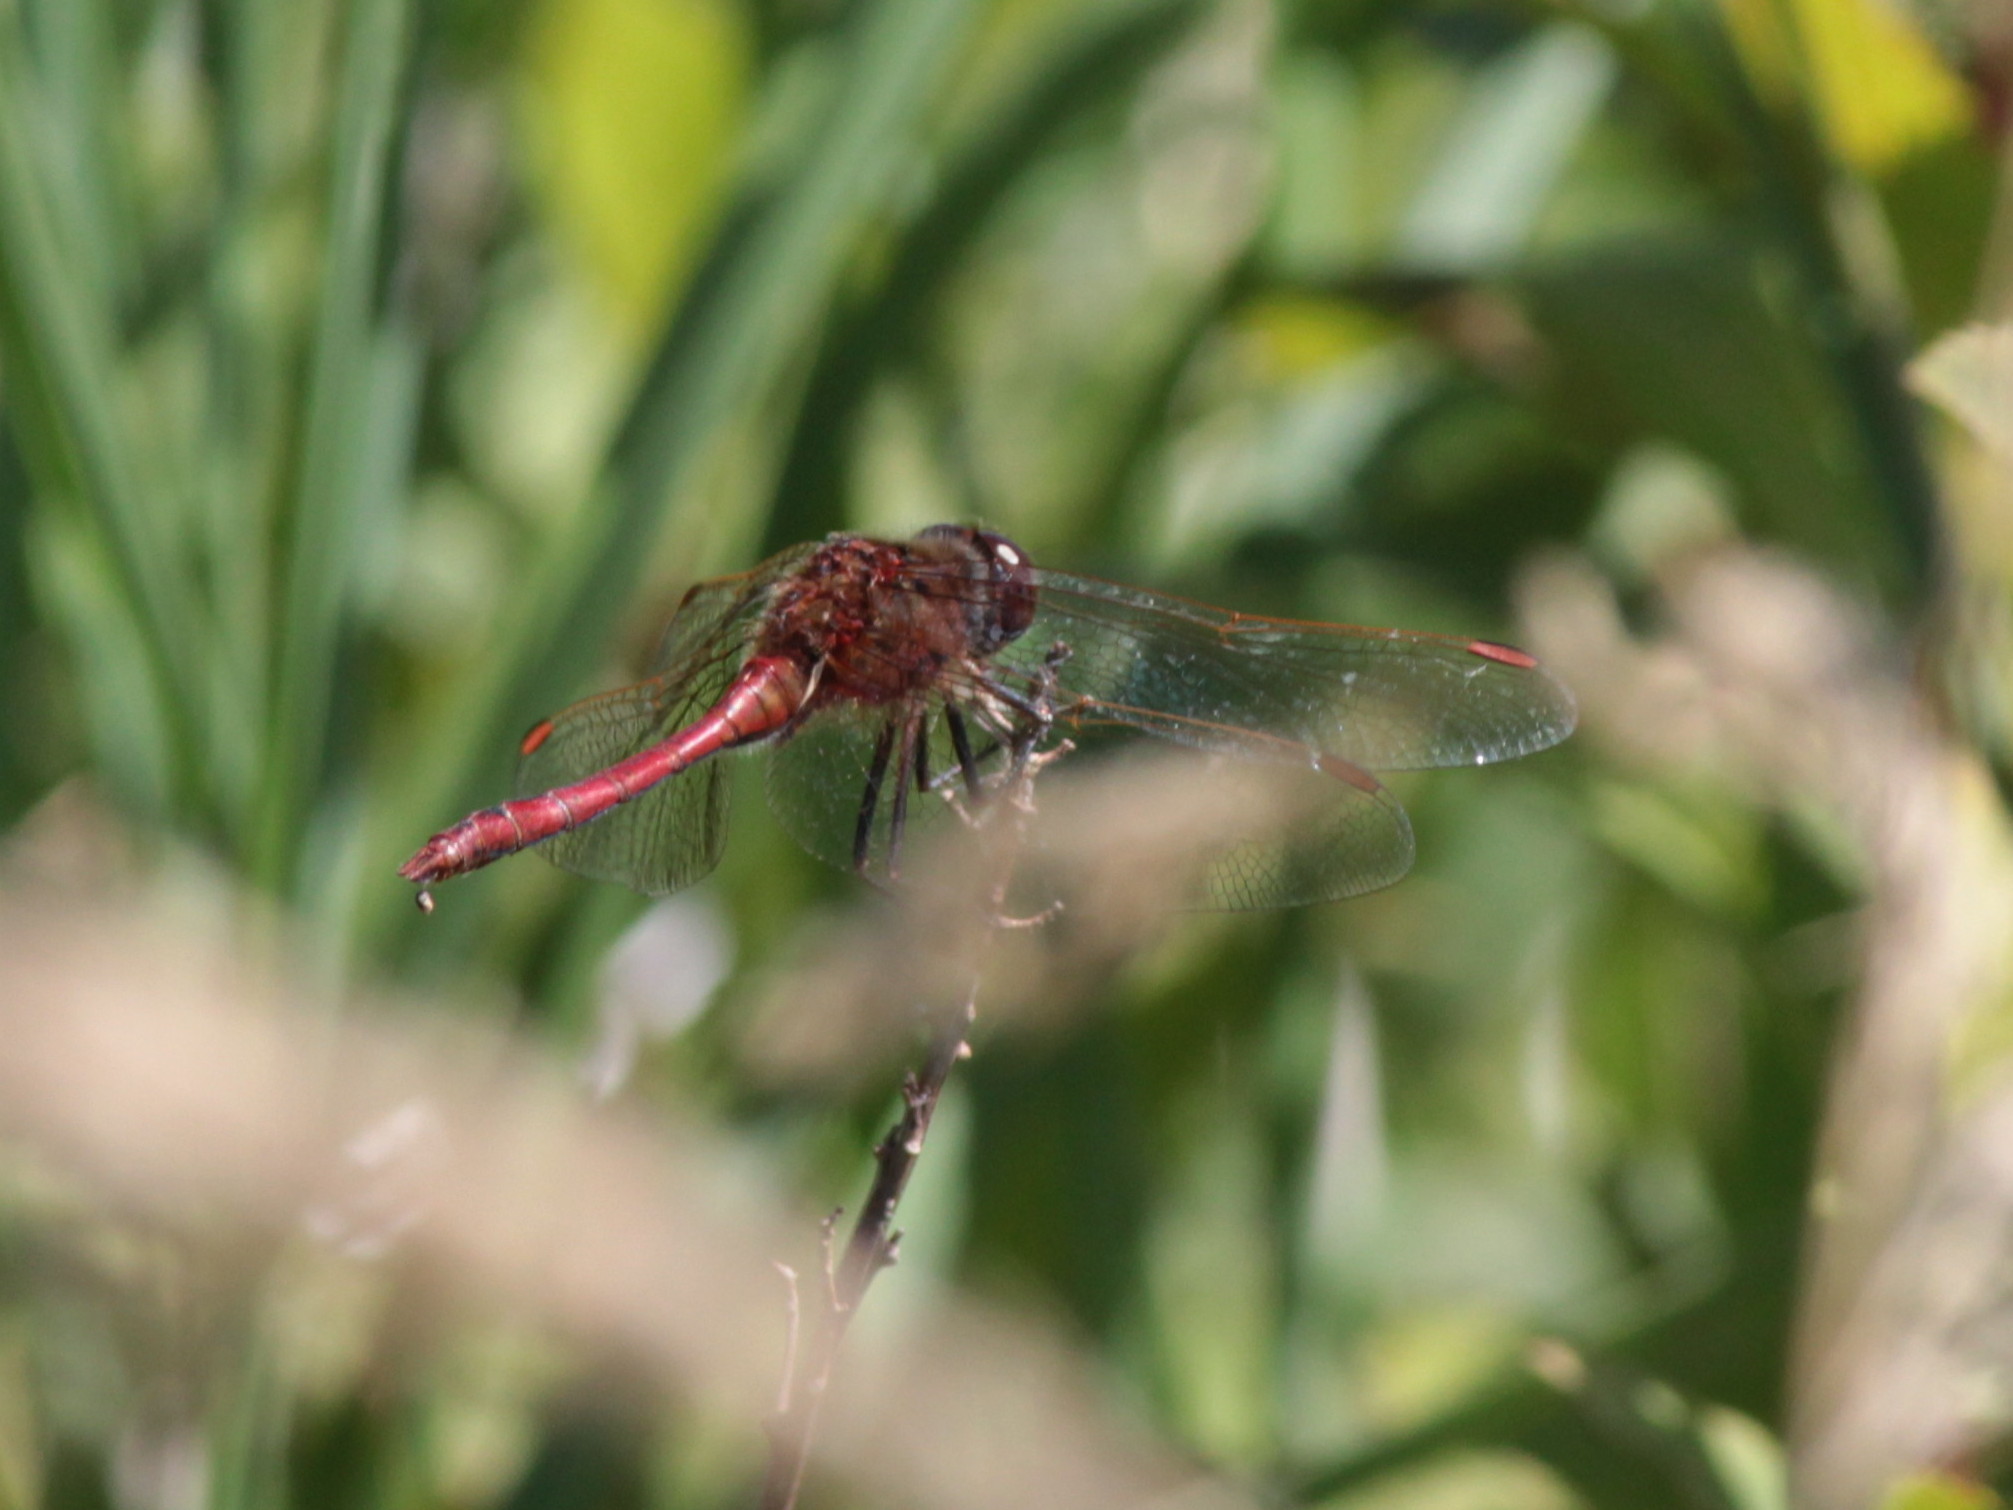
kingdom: Animalia
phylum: Arthropoda
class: Insecta
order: Odonata
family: Libellulidae
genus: Sympetrum
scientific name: Sympetrum costiferum
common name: Saffron-winged meadowhawk
